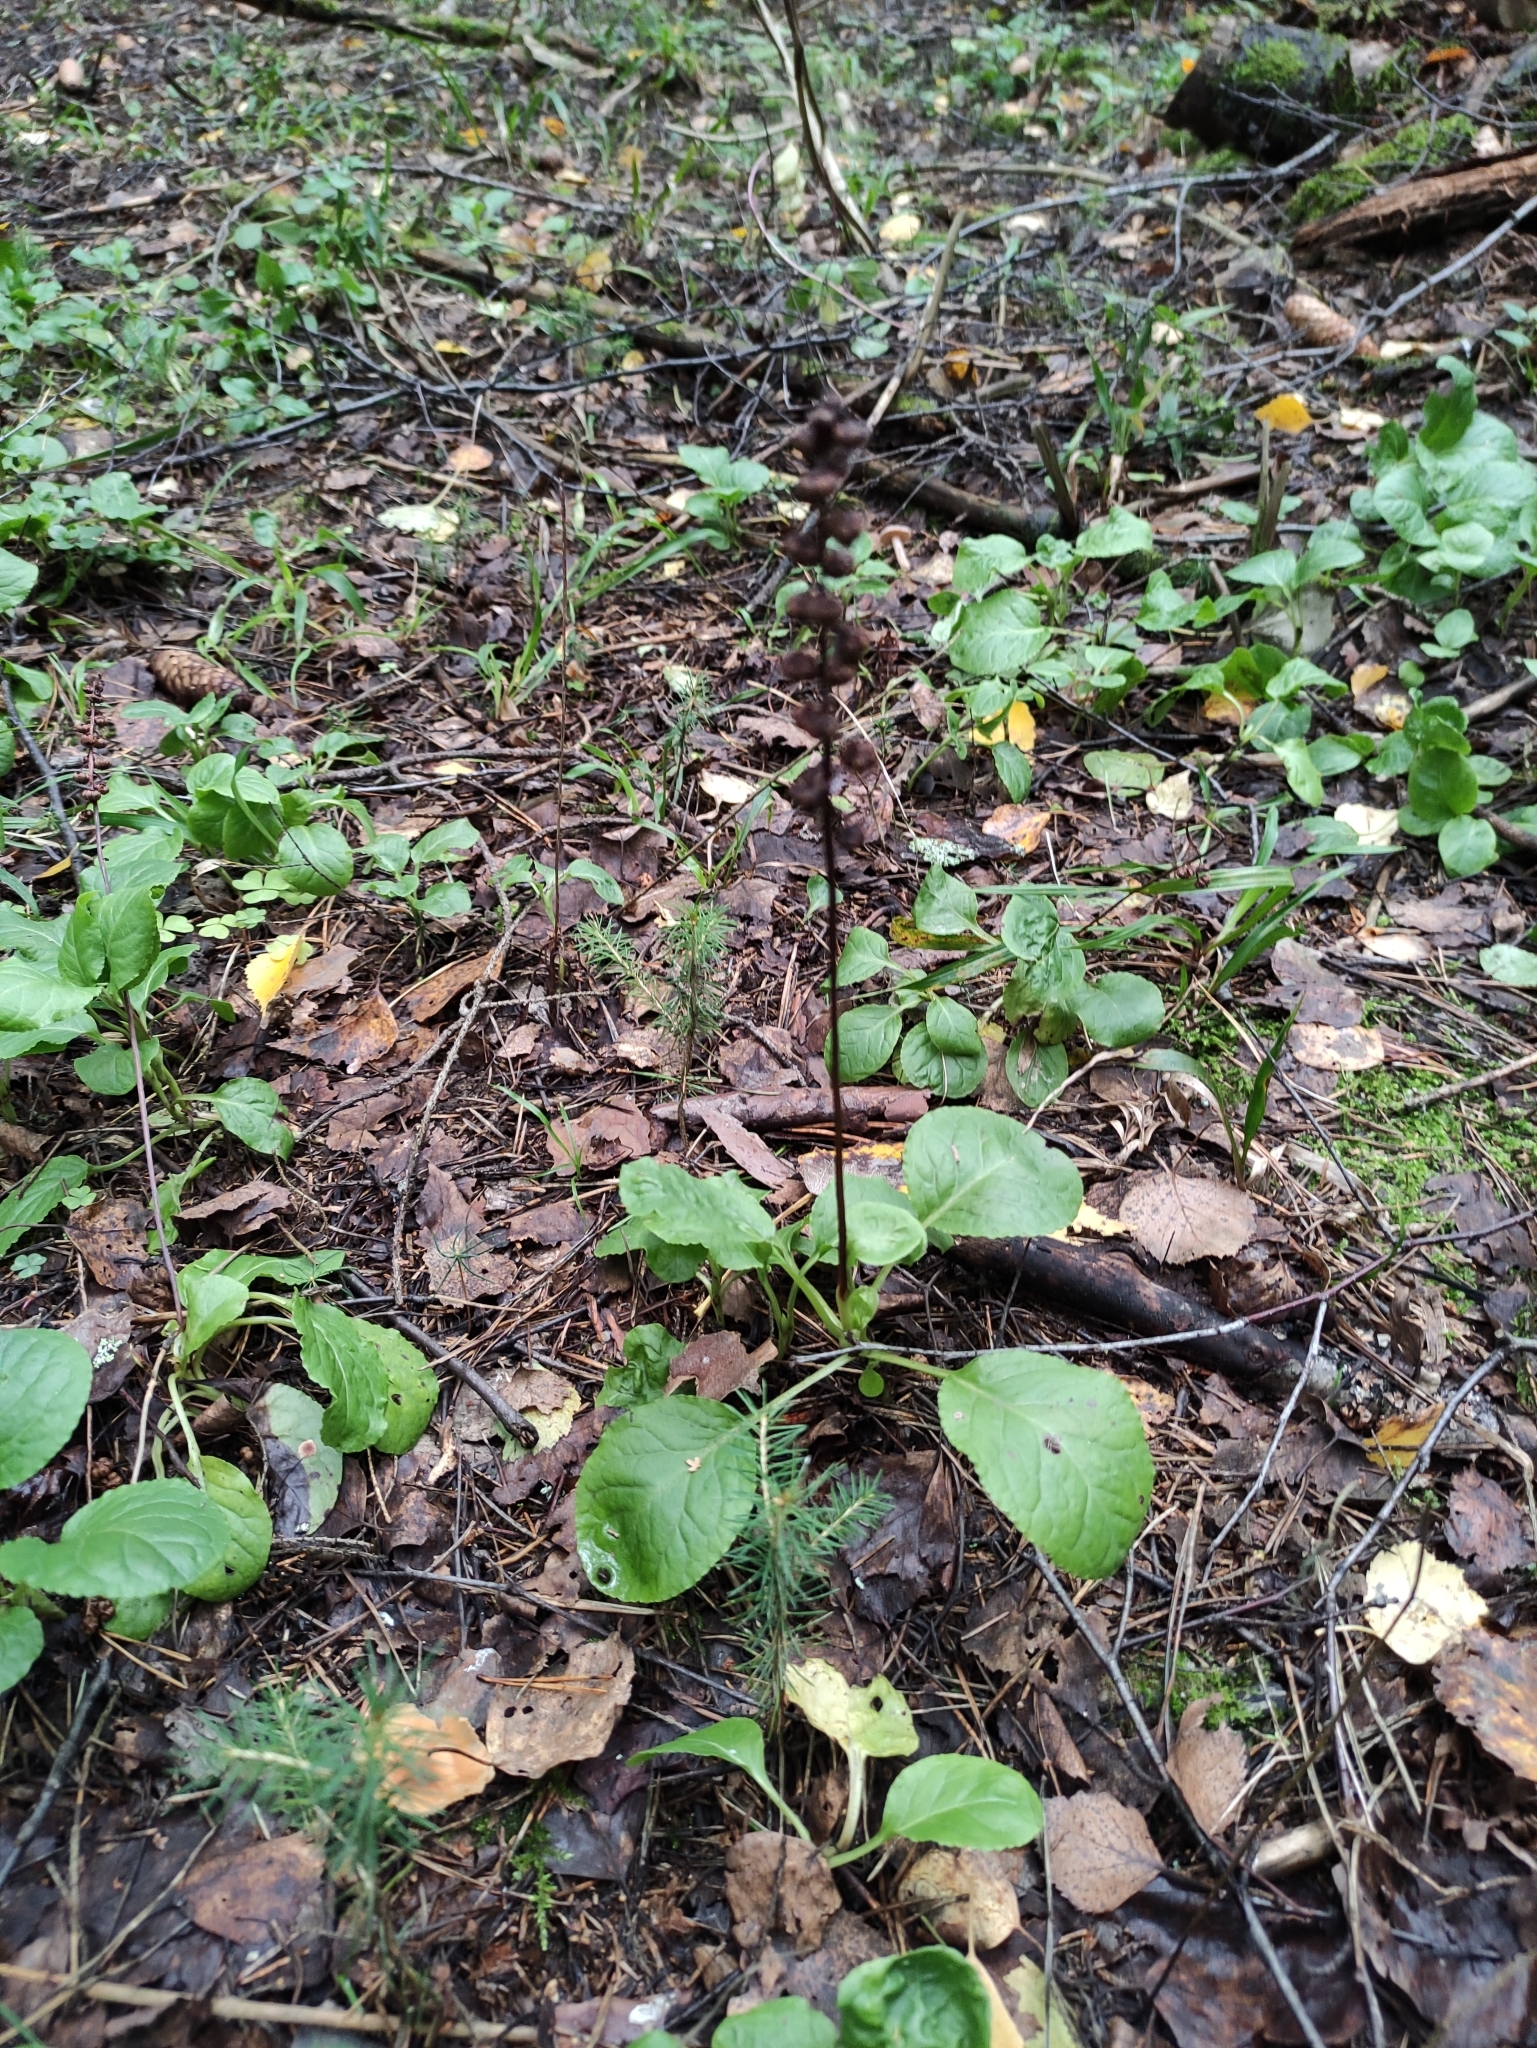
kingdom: Plantae
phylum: Tracheophyta
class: Magnoliopsida
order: Ericales
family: Ericaceae
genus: Pyrola
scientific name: Pyrola minor
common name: Common wintergreen
